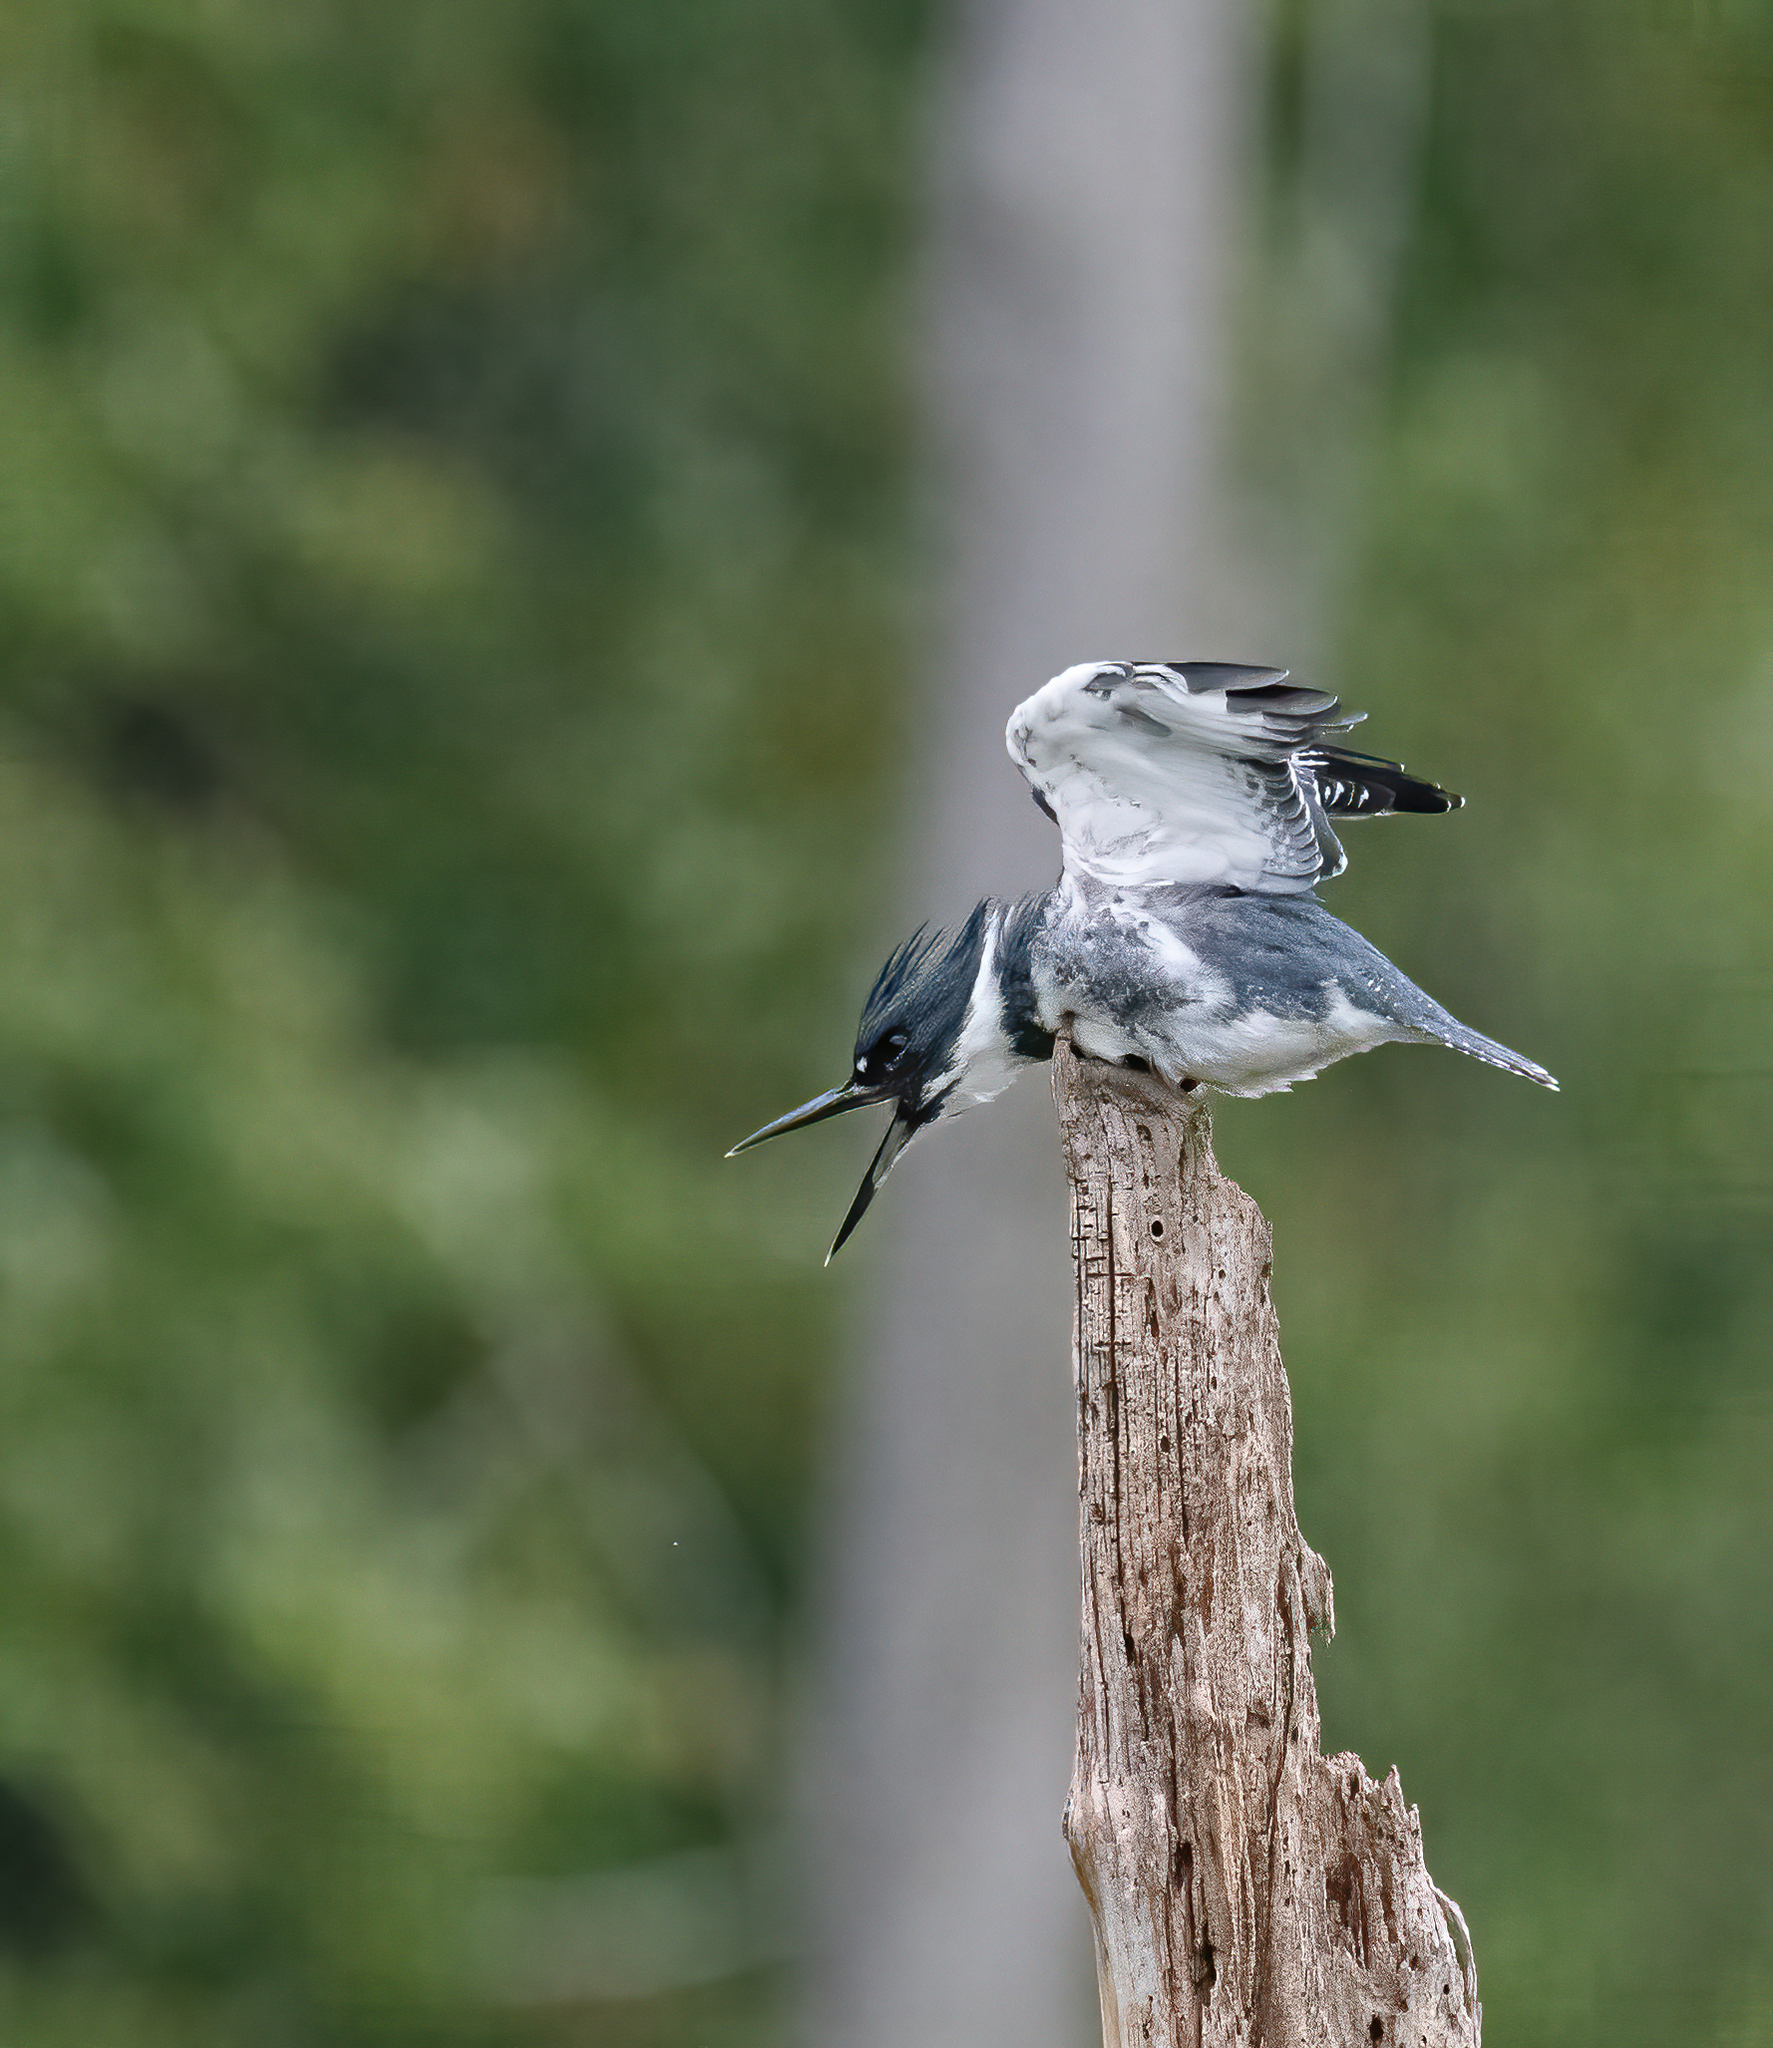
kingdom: Animalia
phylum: Chordata
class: Aves
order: Coraciiformes
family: Alcedinidae
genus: Megaceryle
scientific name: Megaceryle alcyon
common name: Belted kingfisher
